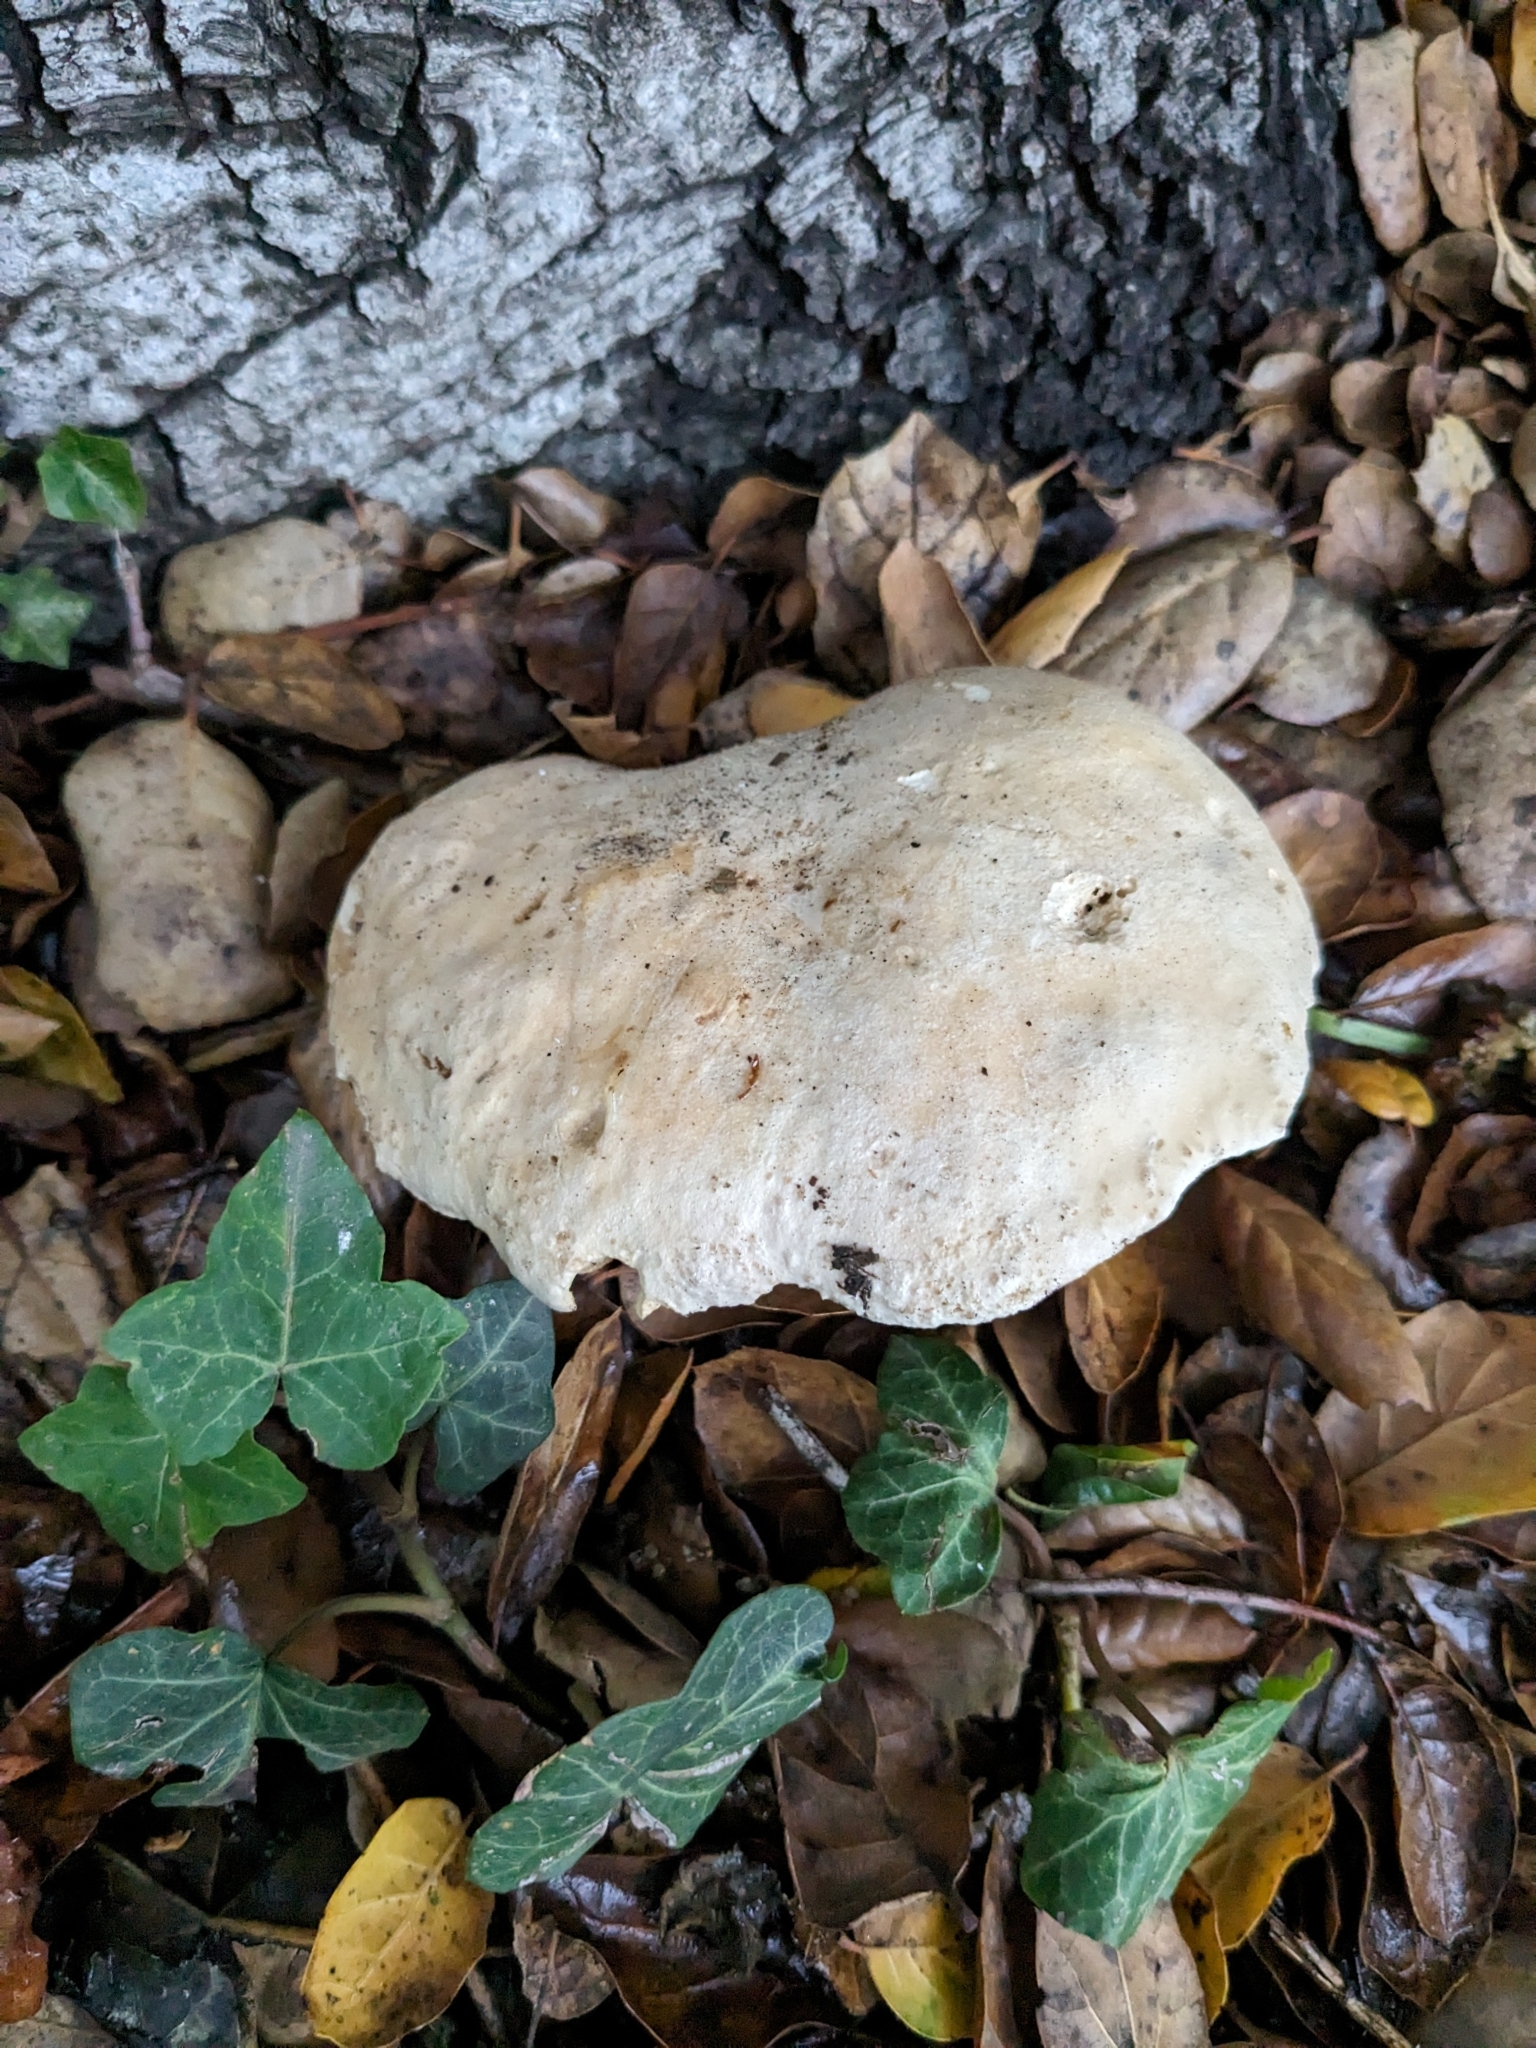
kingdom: Fungi
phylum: Basidiomycota
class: Agaricomycetes
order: Boletales
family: Boletaceae
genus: Boletus
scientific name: Boletus barrowsii
